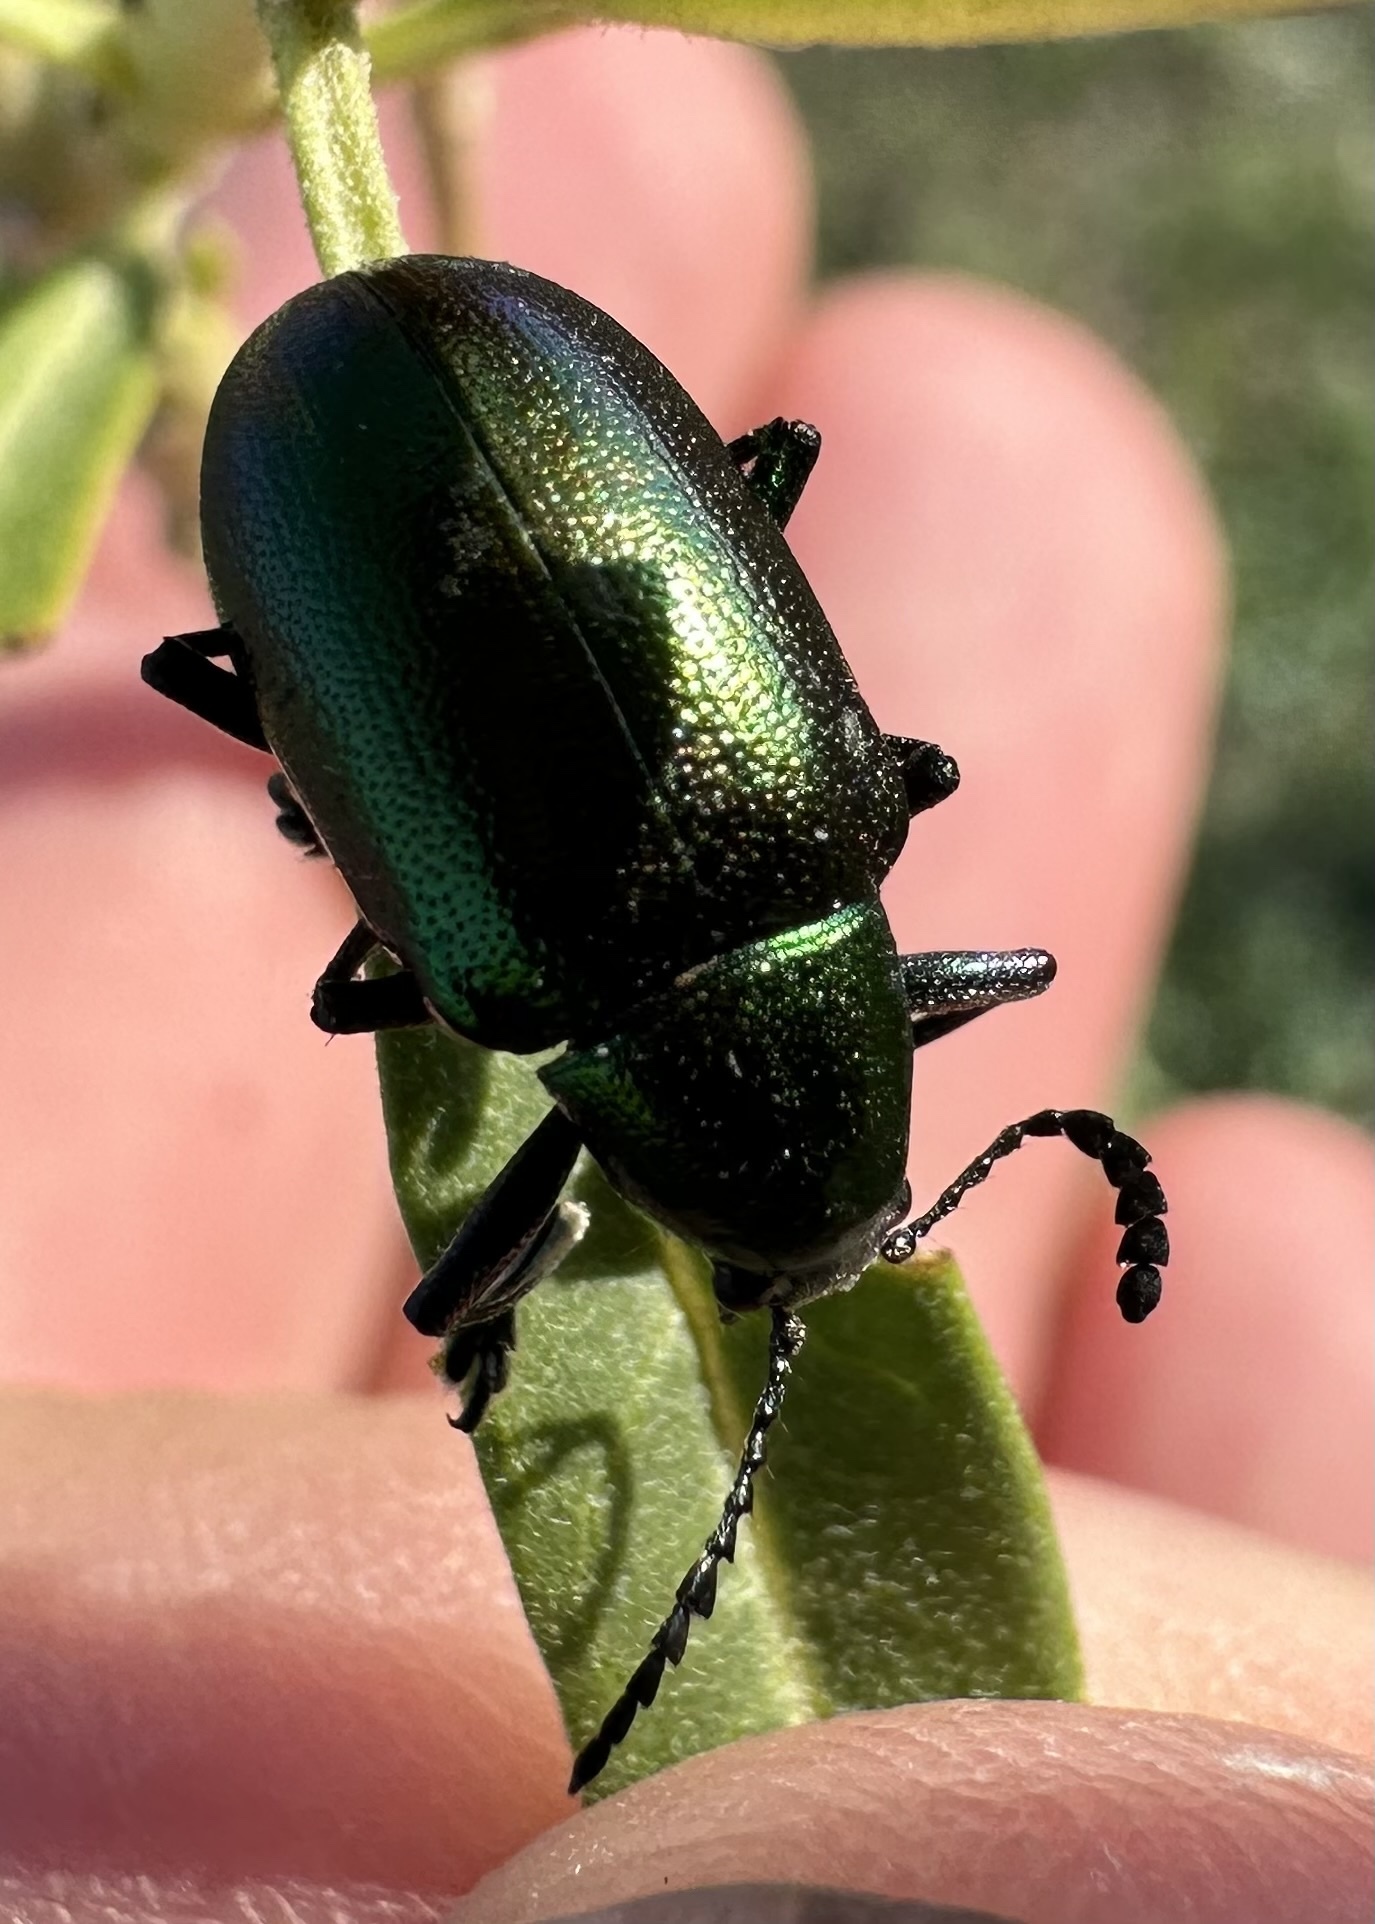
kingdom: Animalia
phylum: Arthropoda
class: Insecta
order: Coleoptera
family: Chrysomelidae
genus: Platycorynus
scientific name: Platycorynus dejeani
